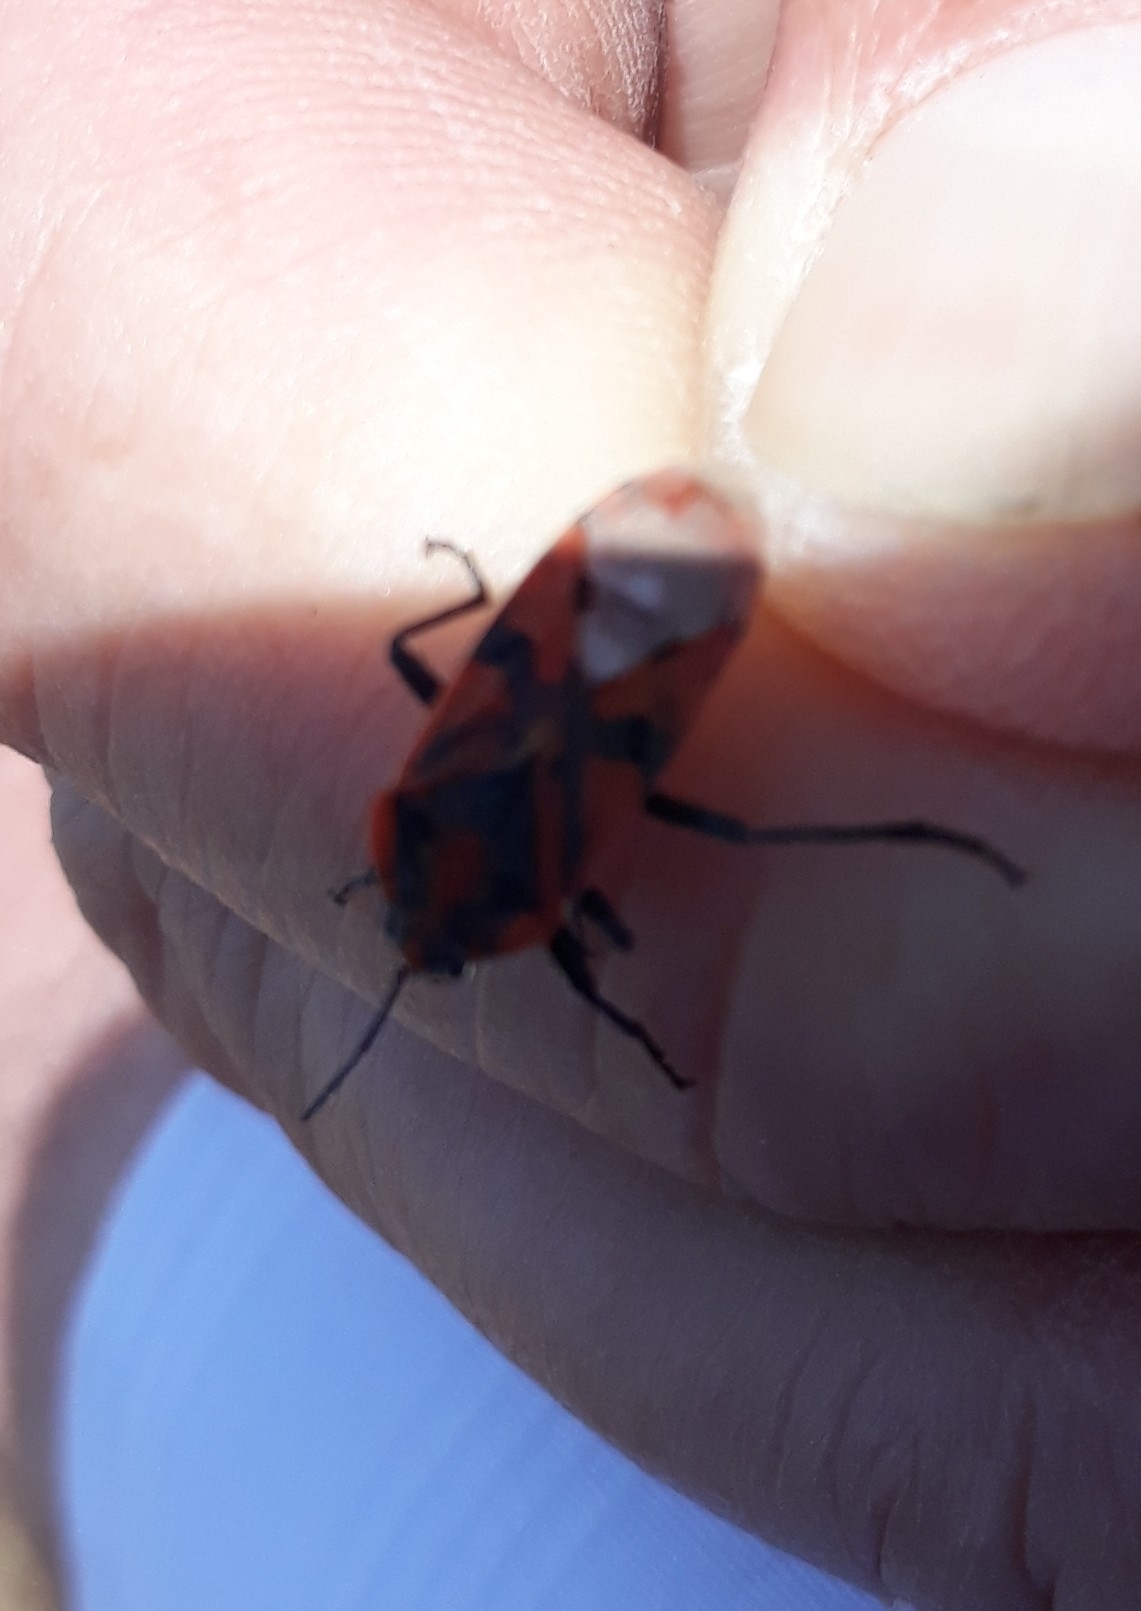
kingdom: Animalia
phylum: Arthropoda
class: Insecta
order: Hemiptera
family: Lygaeidae
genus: Spilostethus
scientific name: Spilostethus pandurus
